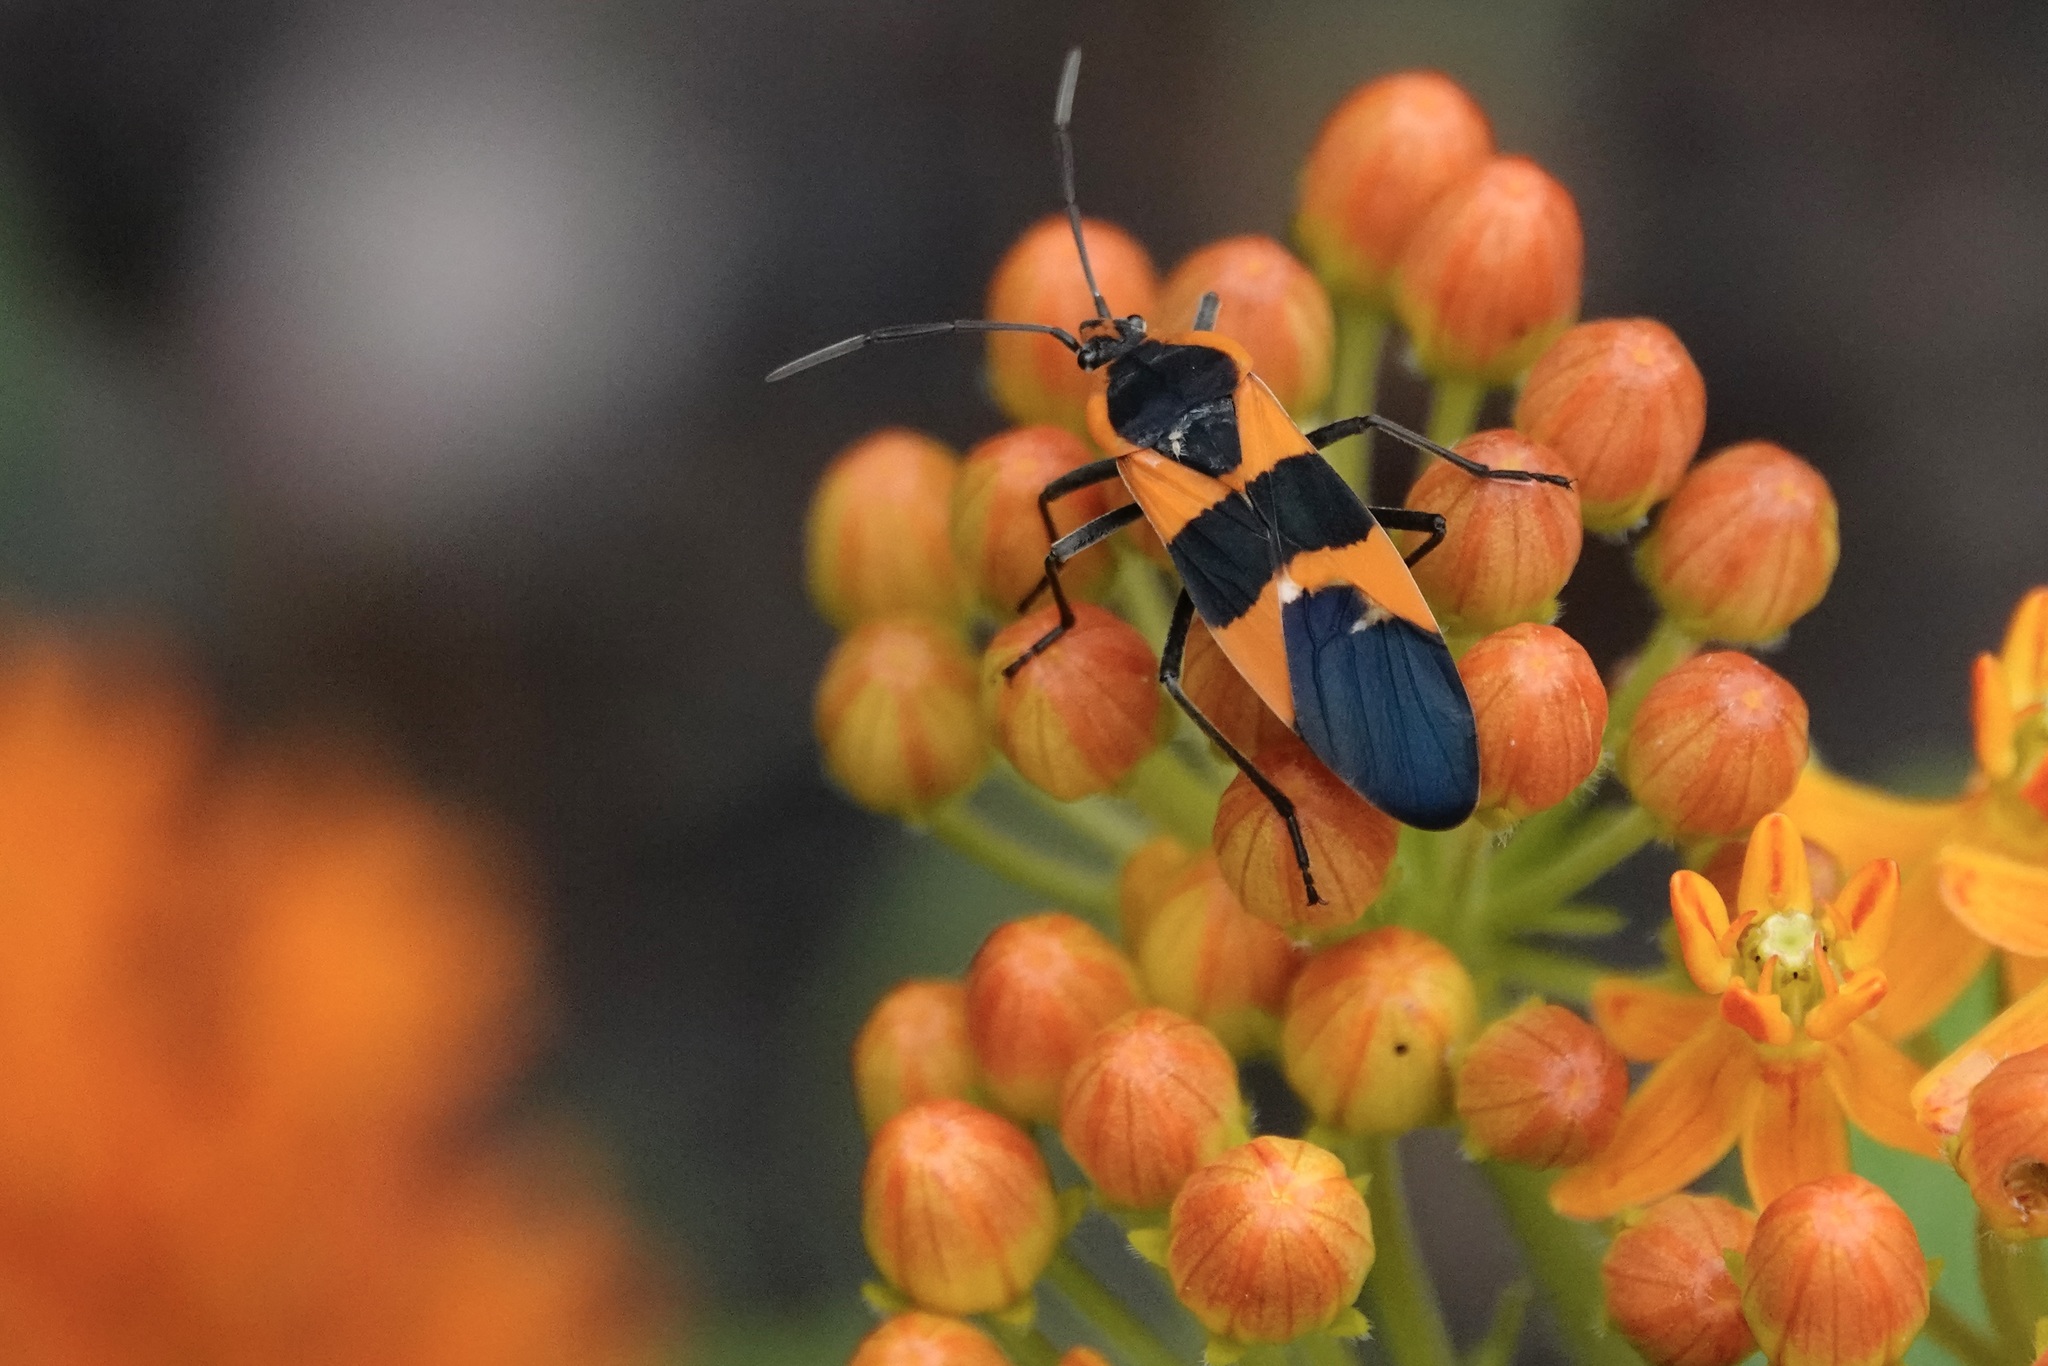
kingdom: Animalia
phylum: Arthropoda
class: Insecta
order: Hemiptera
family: Lygaeidae
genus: Oncopeltus
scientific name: Oncopeltus fasciatus
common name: Large milkweed bug
